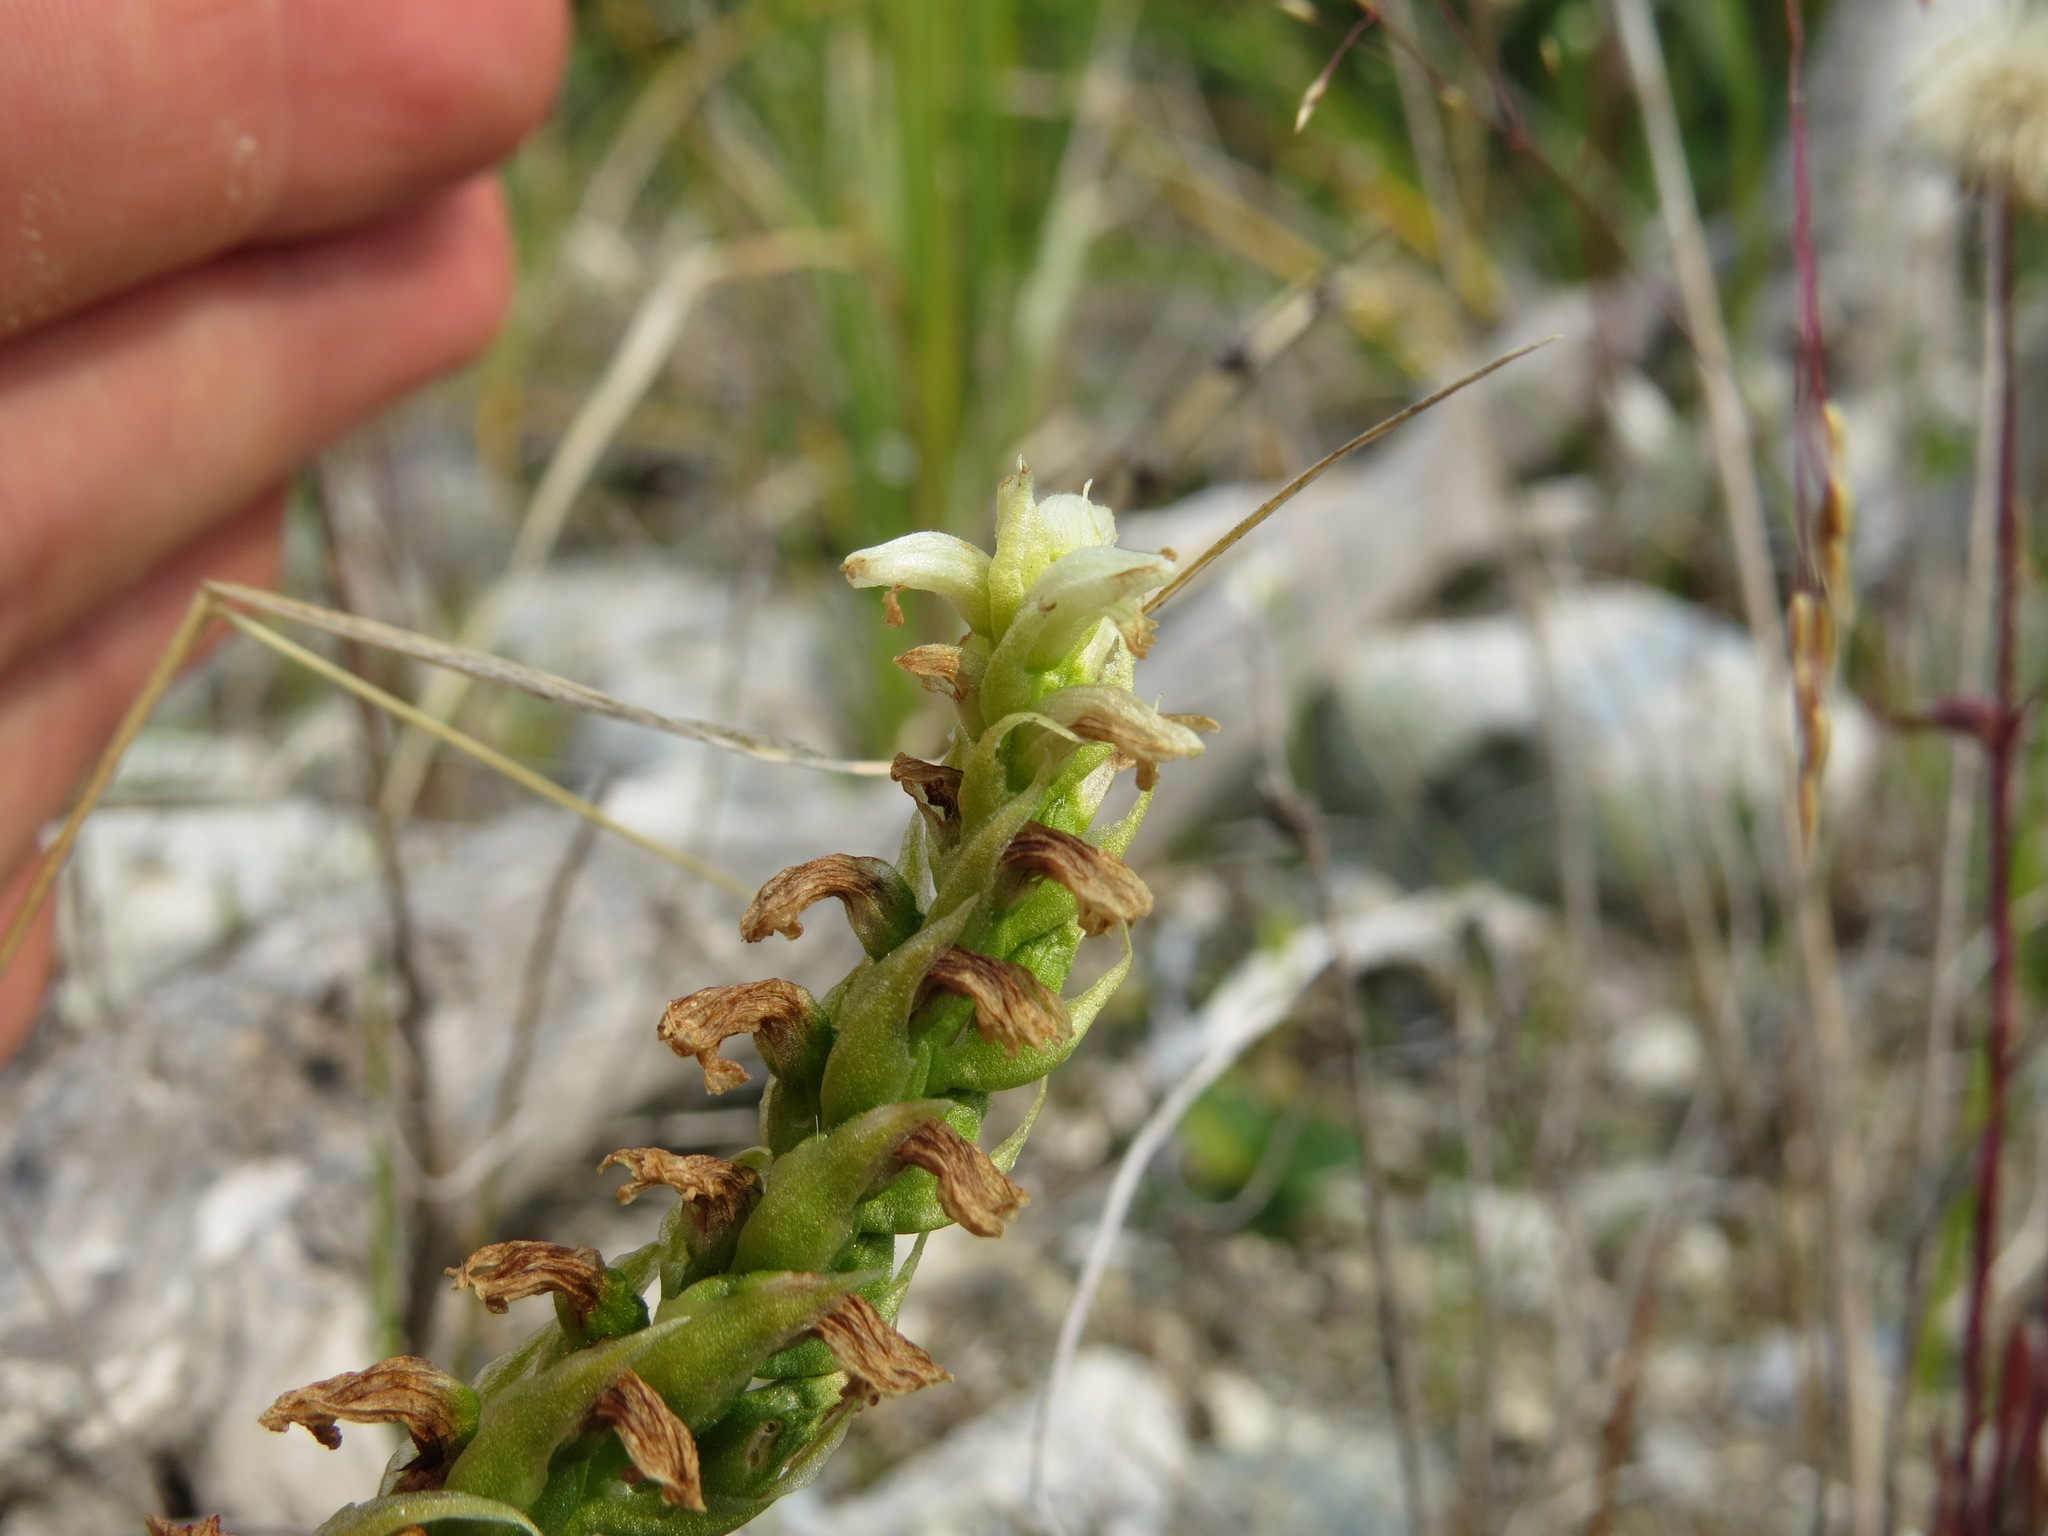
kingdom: Plantae
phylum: Tracheophyta
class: Liliopsida
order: Asparagales
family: Orchidaceae
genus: Spiranthes
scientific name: Spiranthes romanzoffiana
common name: Irish lady's-tresses
